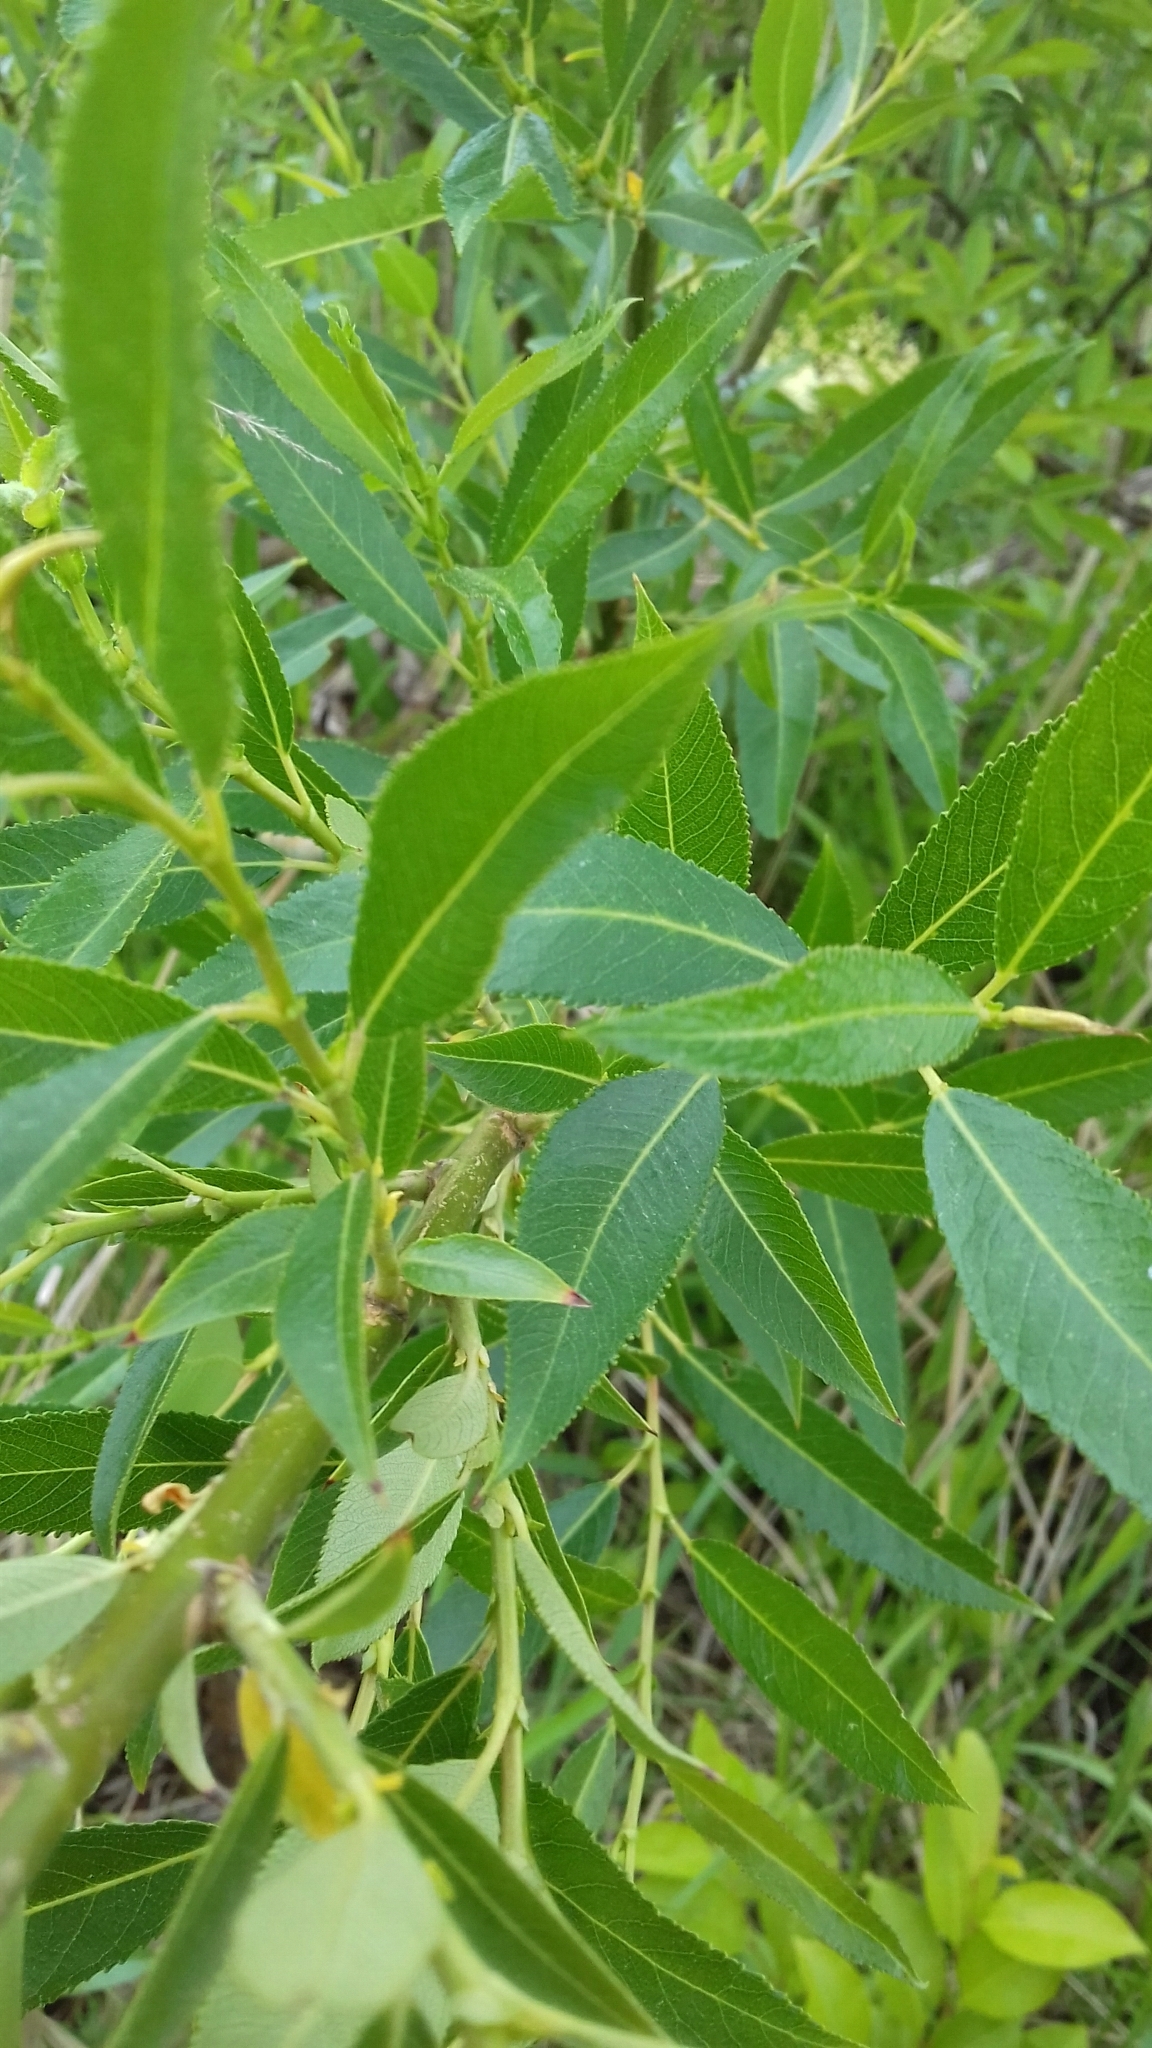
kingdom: Plantae
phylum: Tracheophyta
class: Magnoliopsida
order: Malpighiales
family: Salicaceae
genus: Salix
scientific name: Salix fragilis
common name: Crack willow
